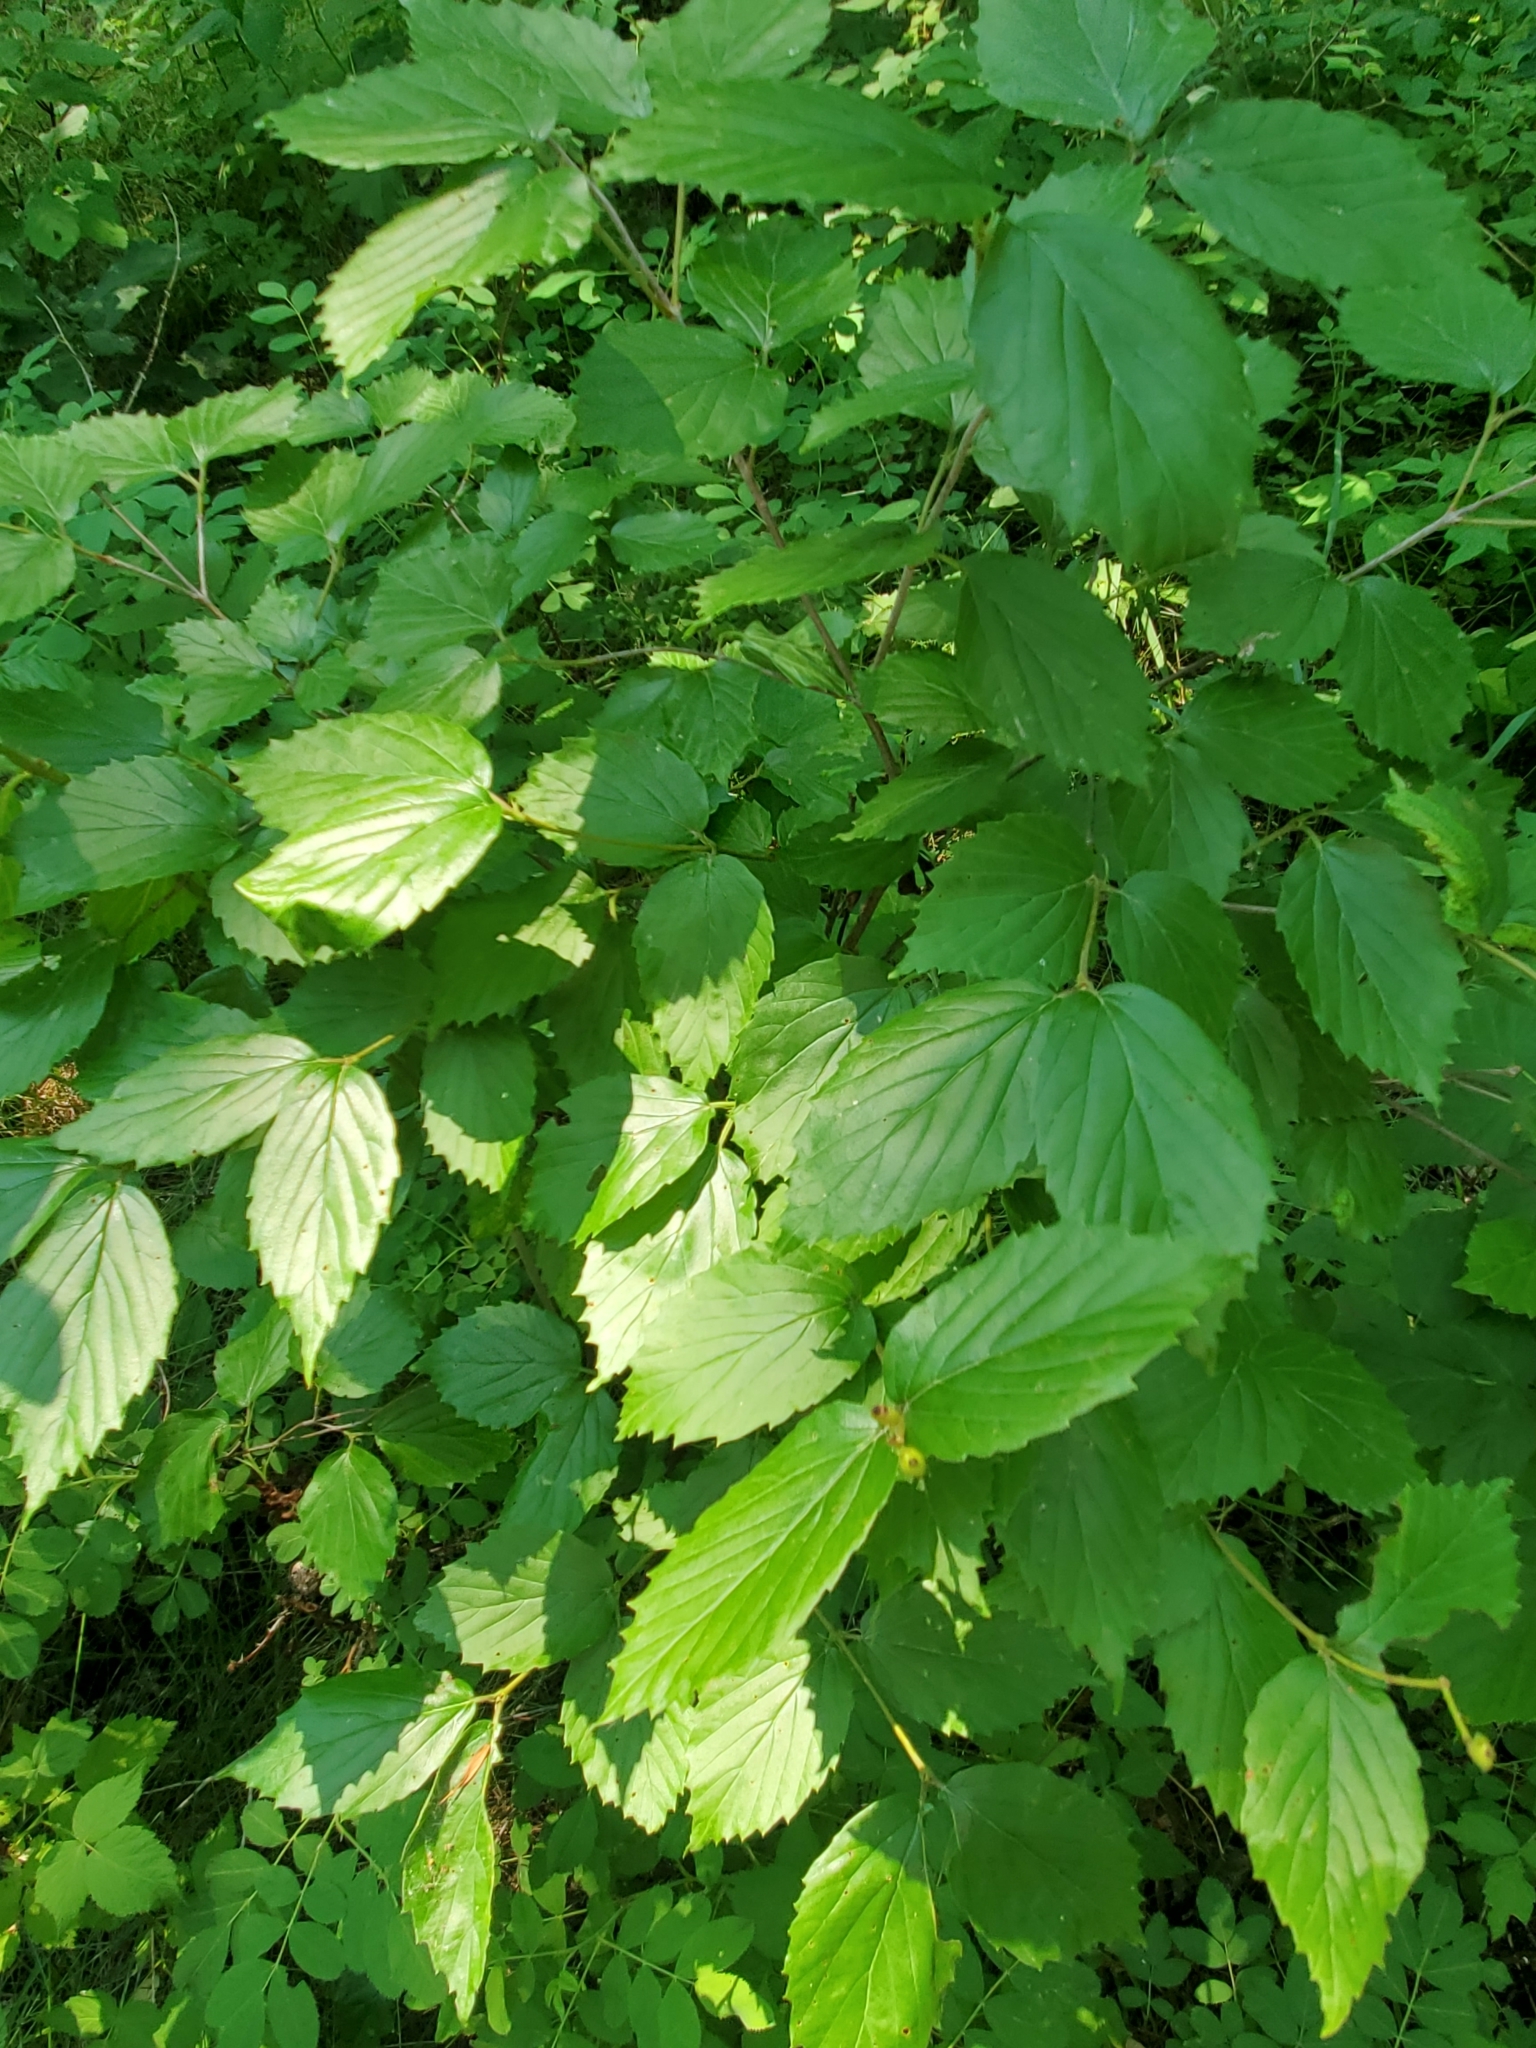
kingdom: Plantae
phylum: Tracheophyta
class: Magnoliopsida
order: Dipsacales
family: Viburnaceae
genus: Viburnum
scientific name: Viburnum rafinesqueanum
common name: Downy arrow-wood
